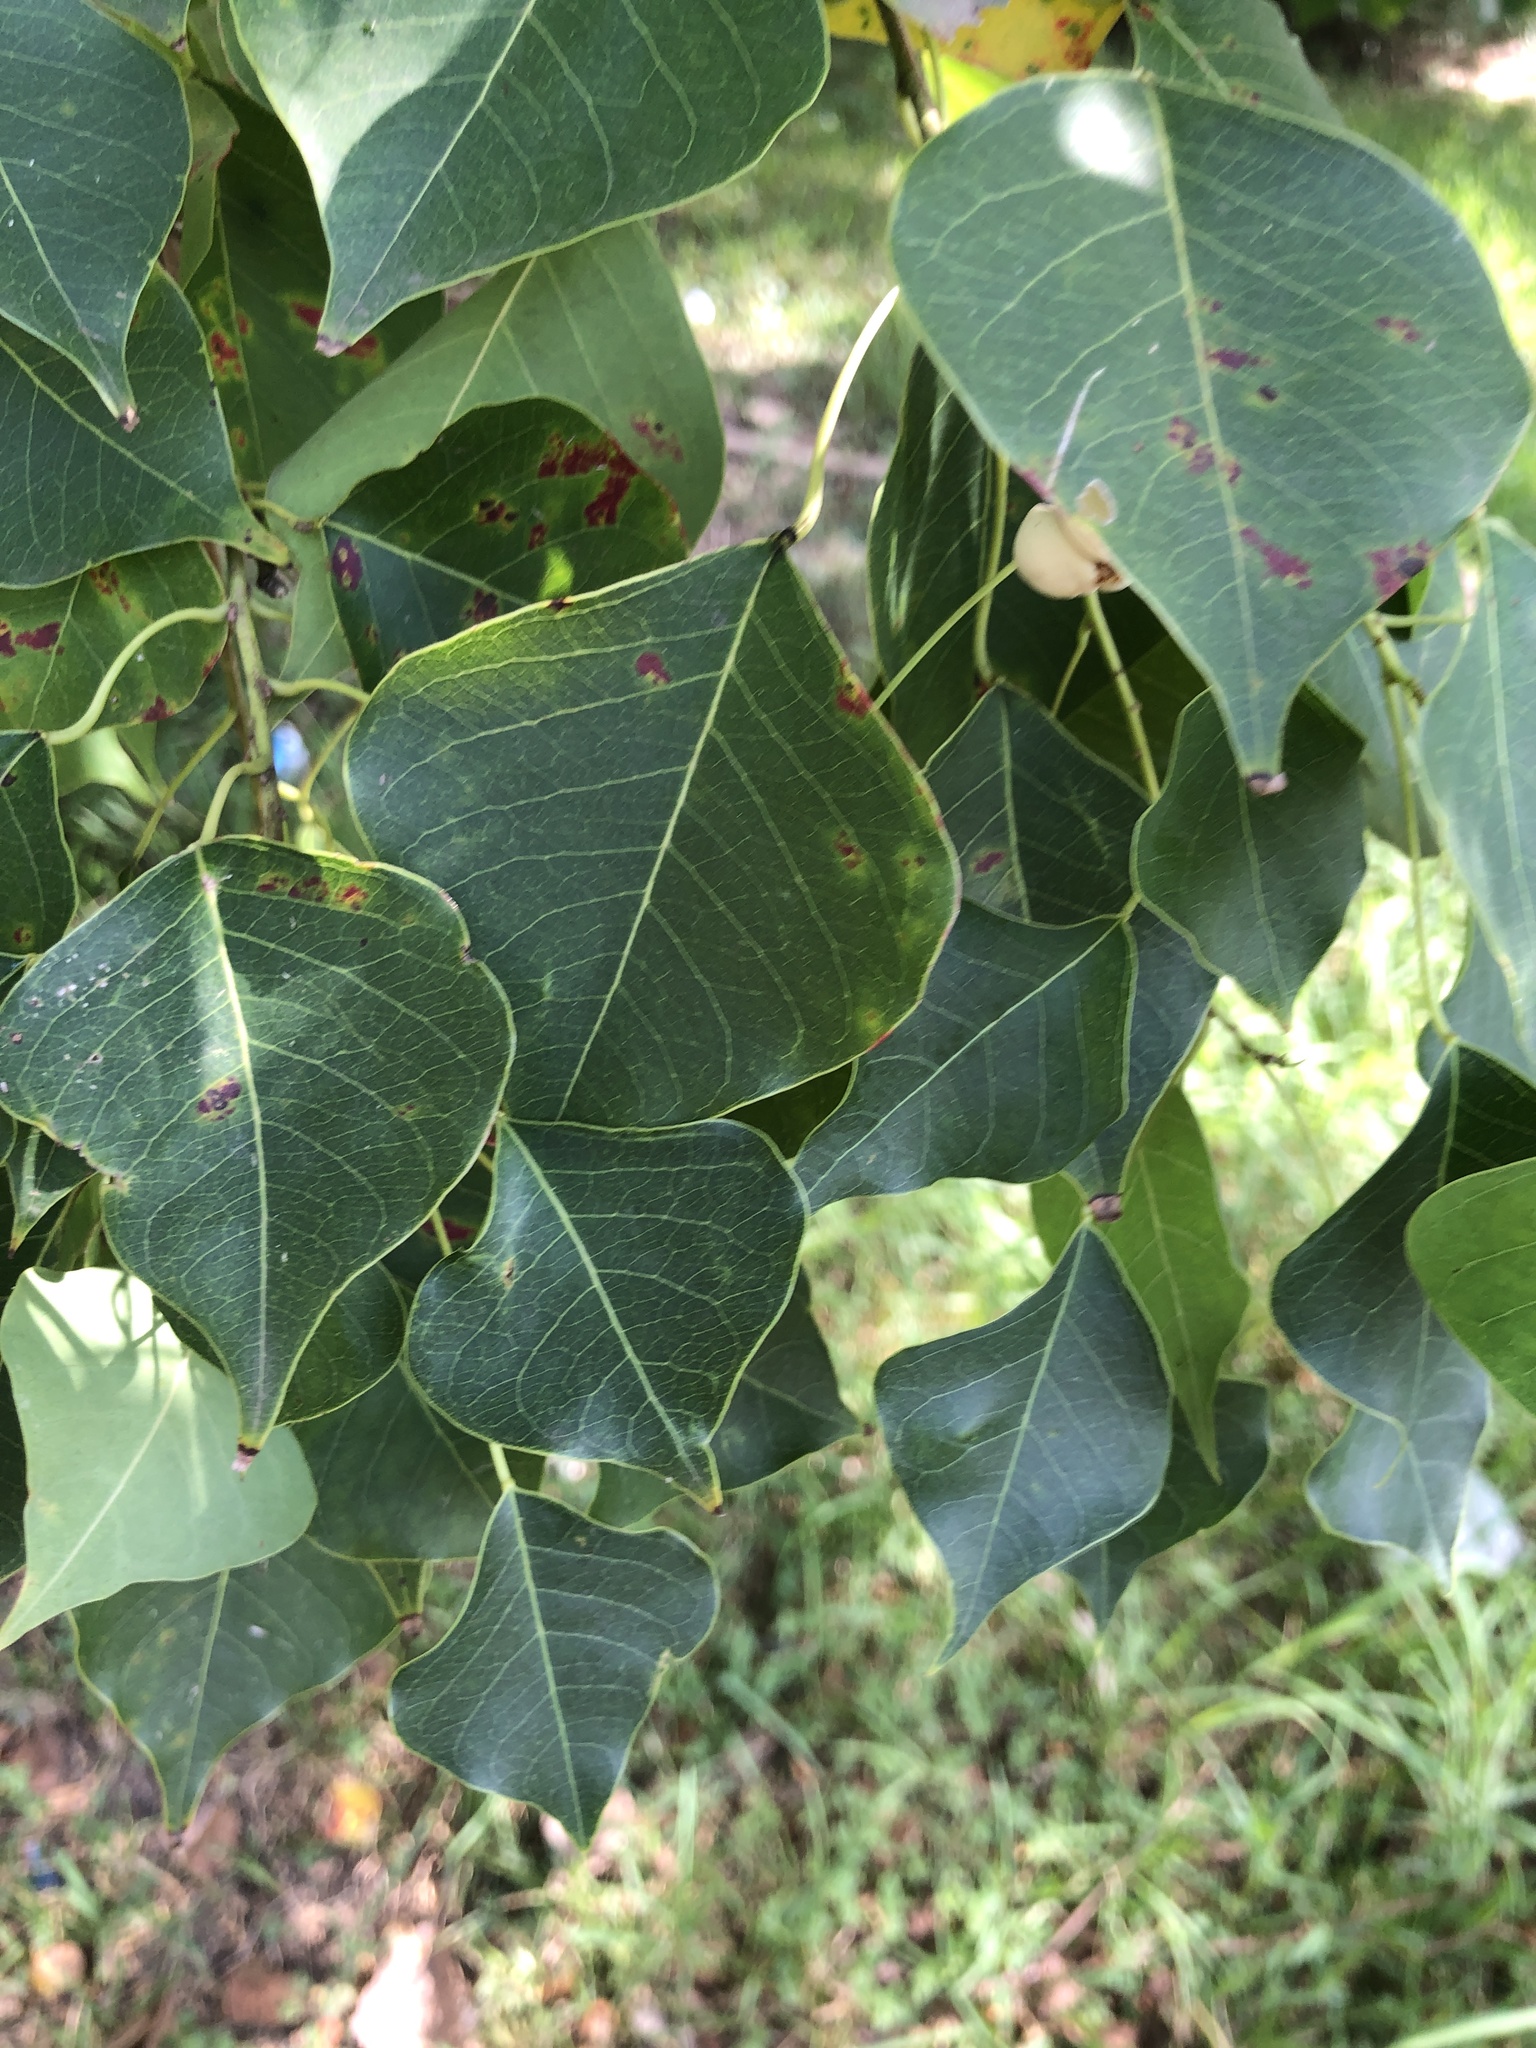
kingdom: Plantae
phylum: Tracheophyta
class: Magnoliopsida
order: Malpighiales
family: Euphorbiaceae
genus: Triadica
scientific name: Triadica sebifera
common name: Chinese tallow
